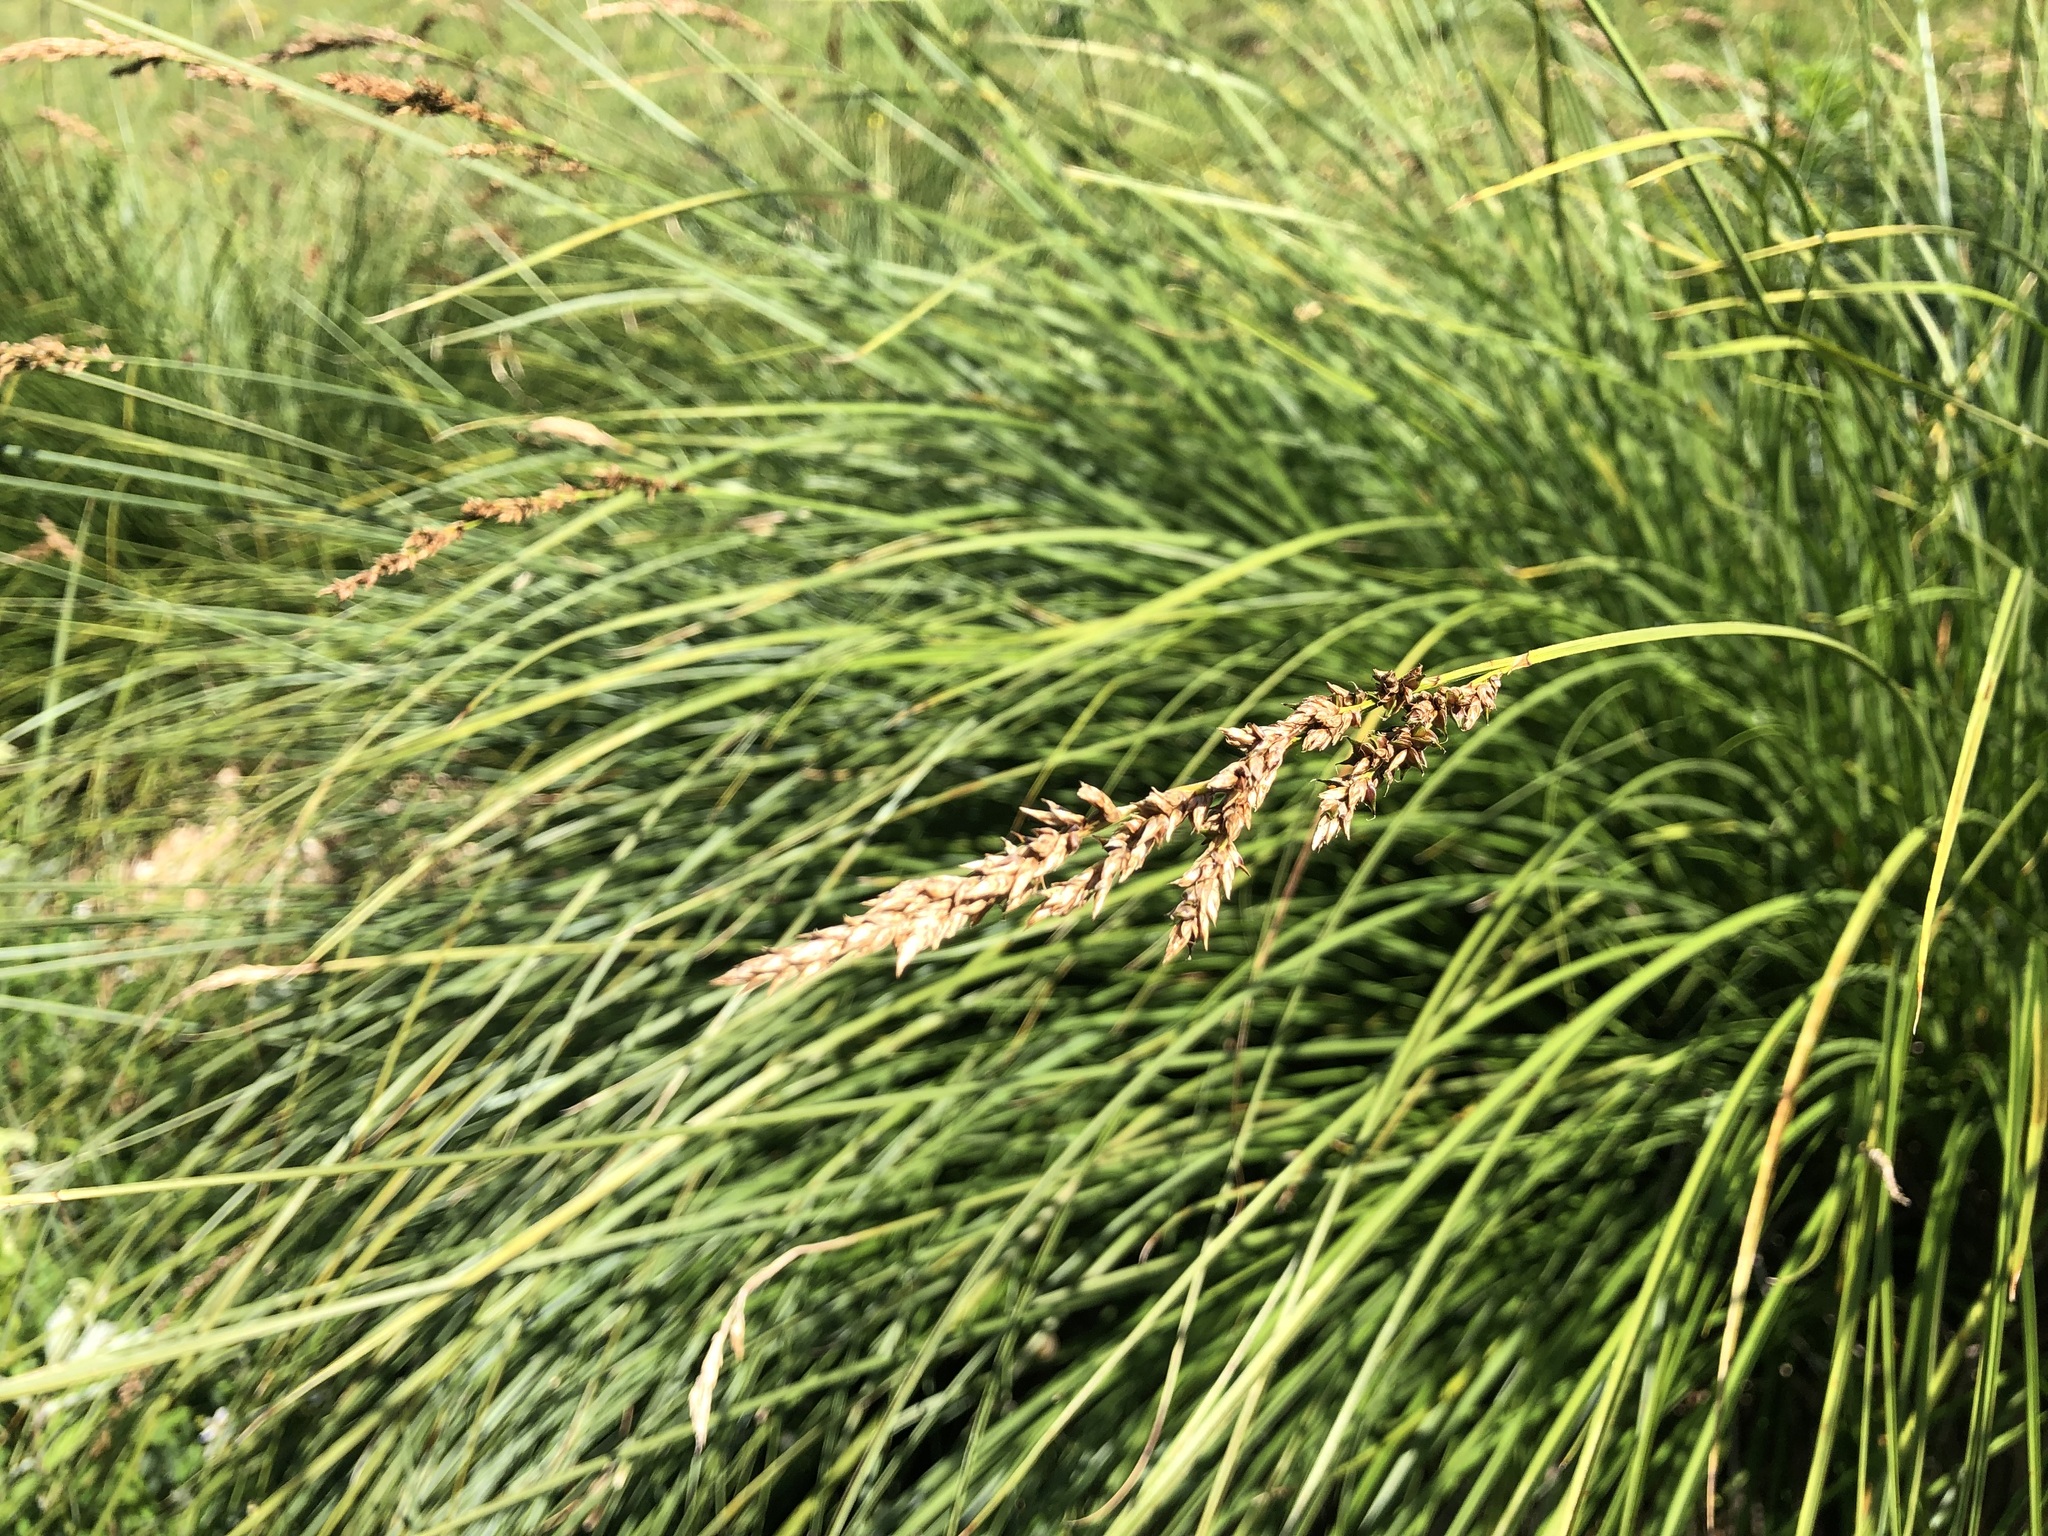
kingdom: Plantae
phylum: Tracheophyta
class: Liliopsida
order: Poales
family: Cyperaceae
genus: Carex
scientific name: Carex paniculata
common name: Greater tussock-sedge
